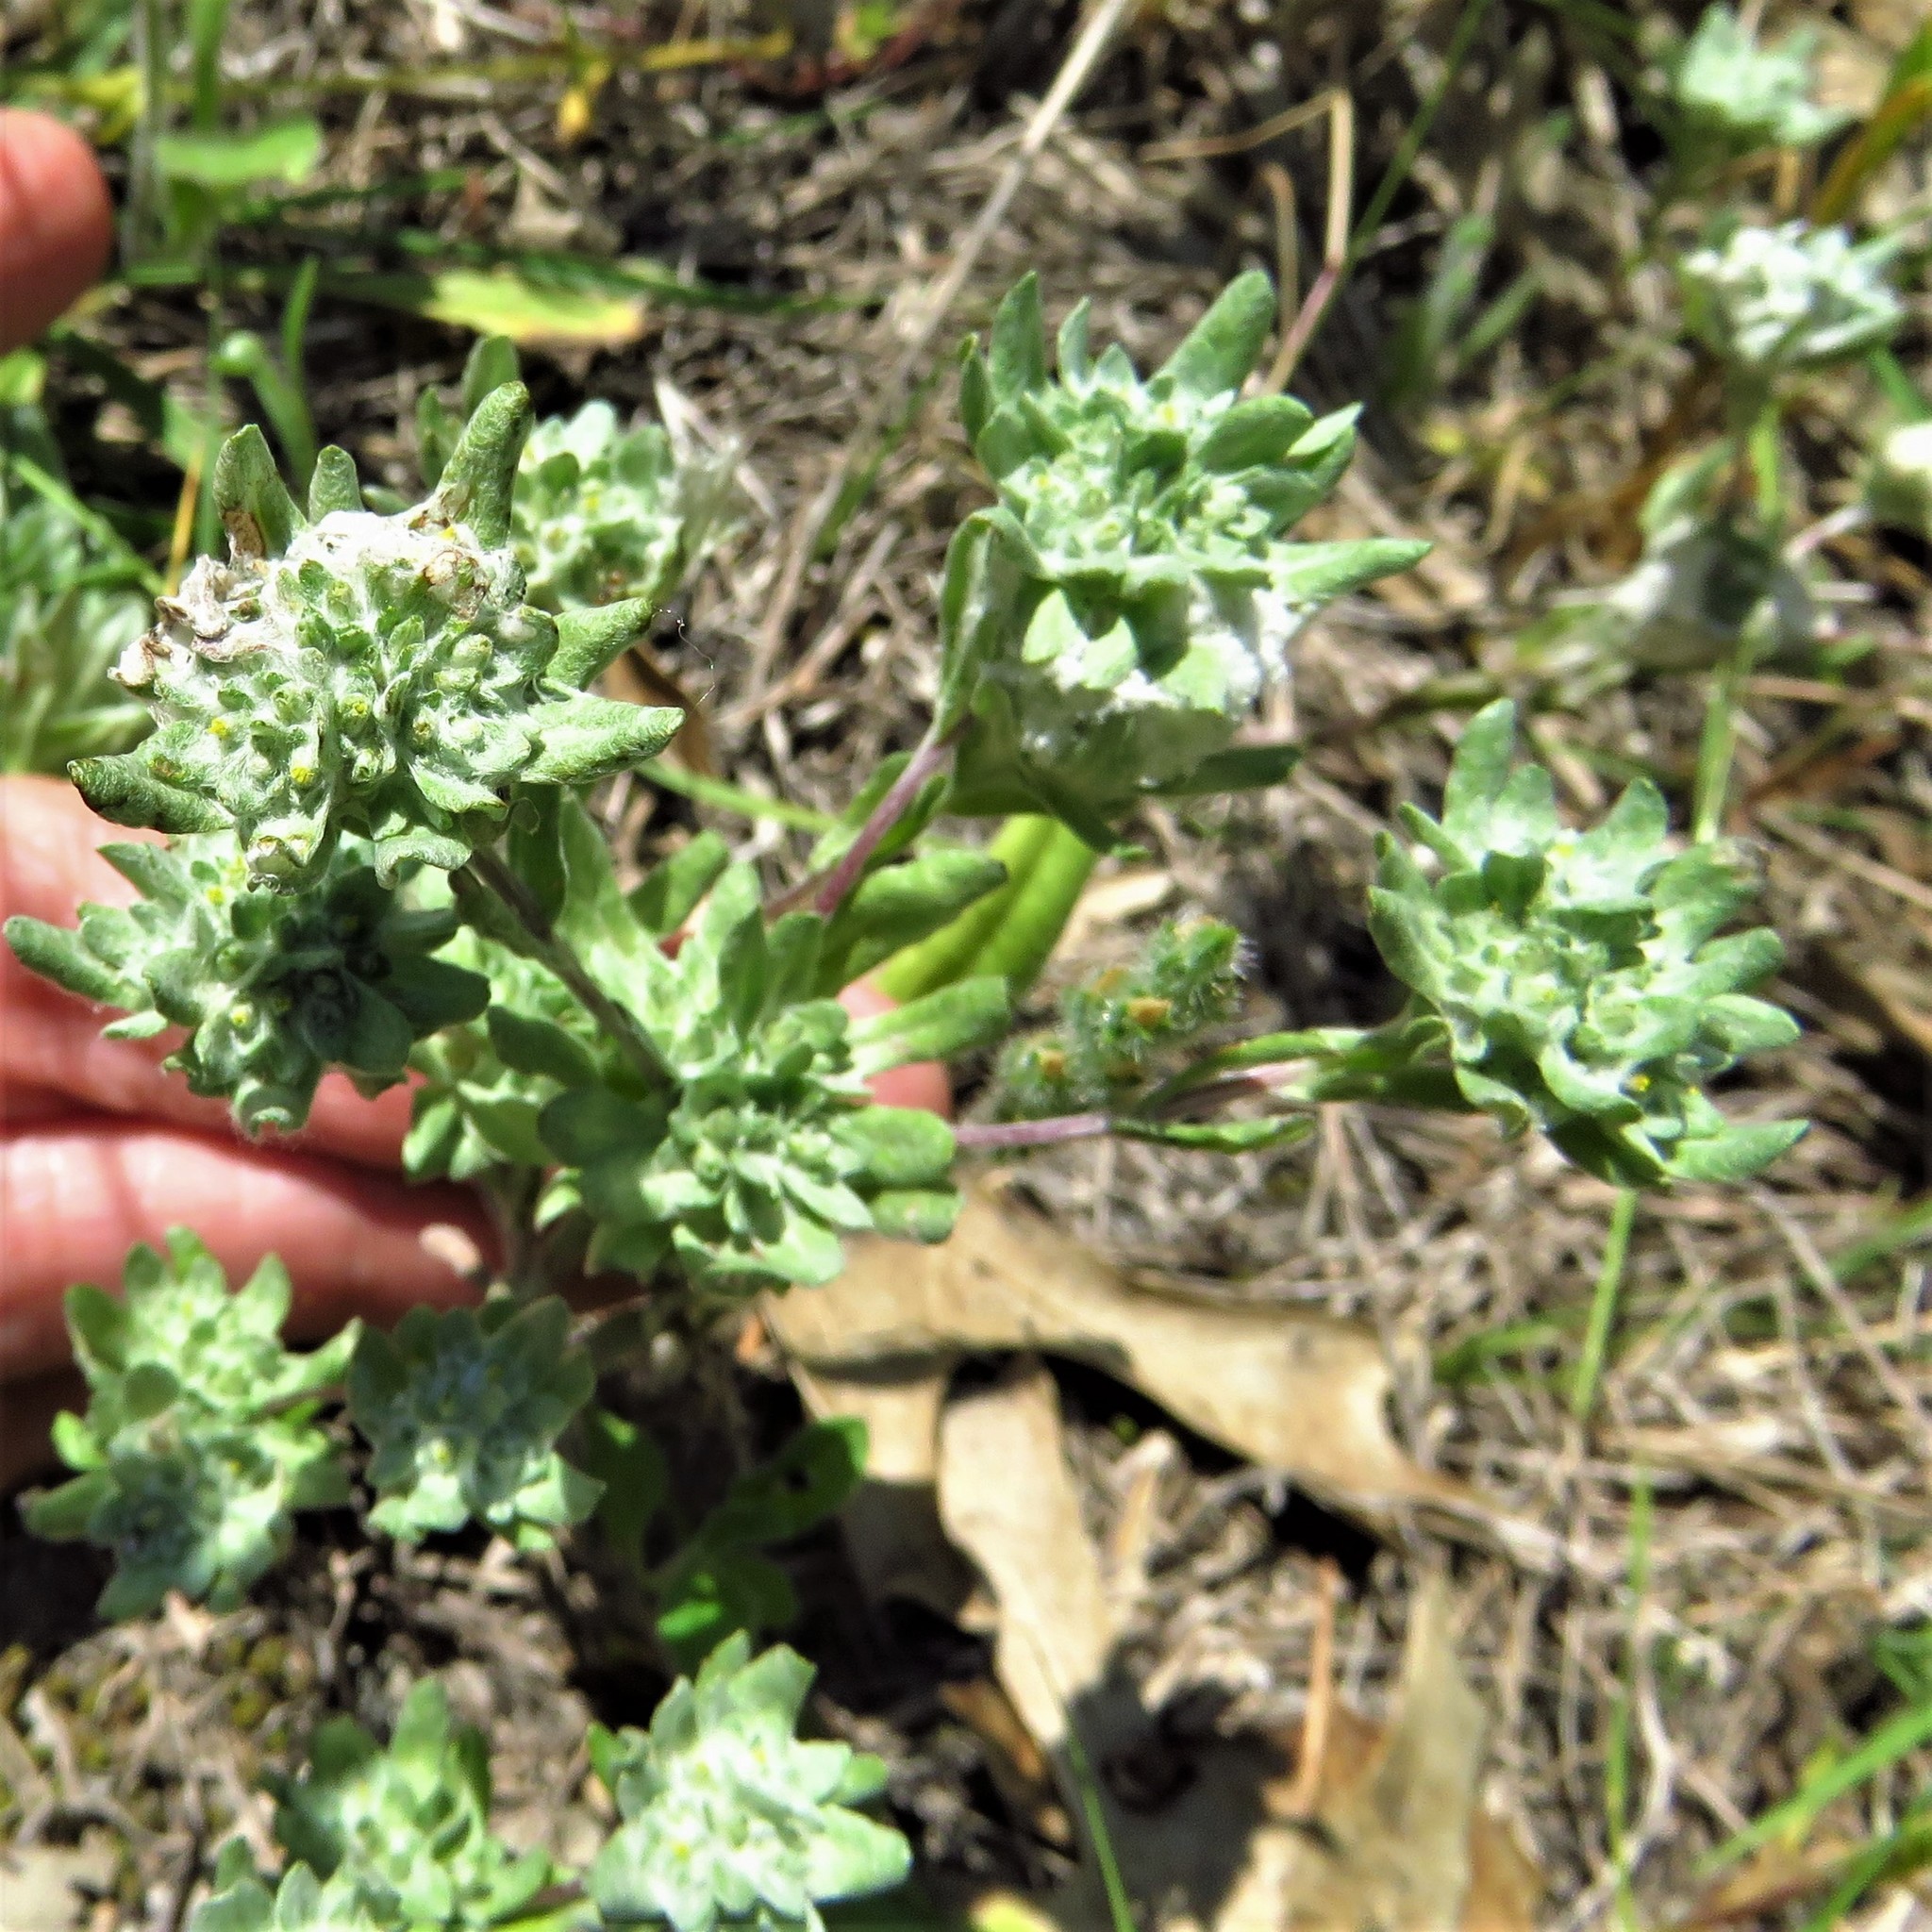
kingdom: Plantae
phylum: Tracheophyta
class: Magnoliopsida
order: Asterales
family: Asteraceae
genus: Diaperia
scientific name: Diaperia prolifera
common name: Big-head rabbit-tobacco
